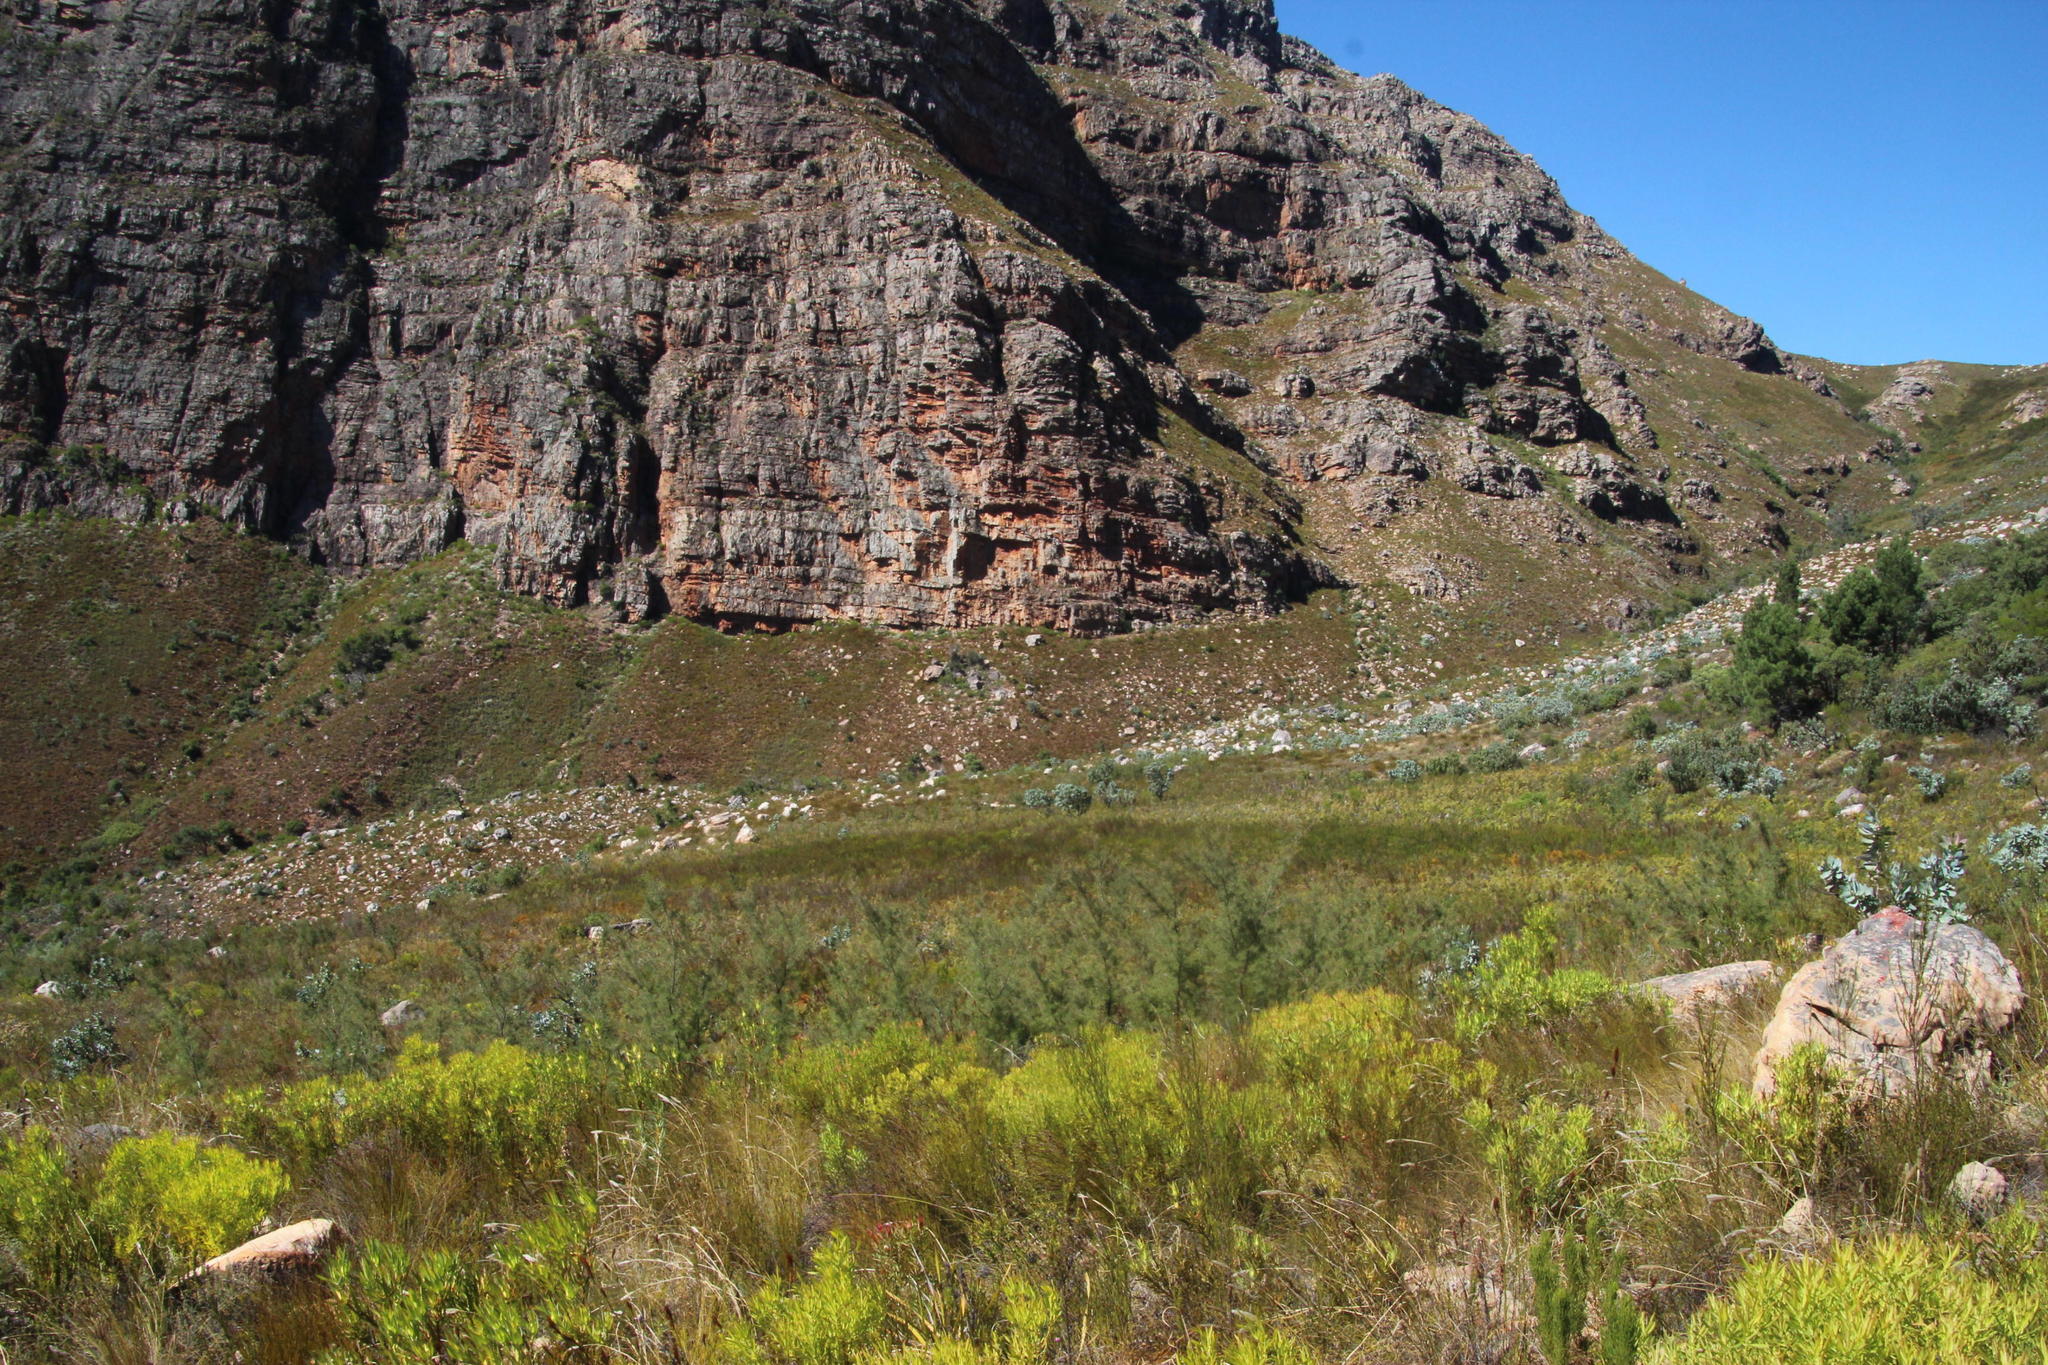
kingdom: Plantae
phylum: Tracheophyta
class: Magnoliopsida
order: Proteales
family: Proteaceae
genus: Hakea
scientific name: Hakea sericea
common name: Needle bush
